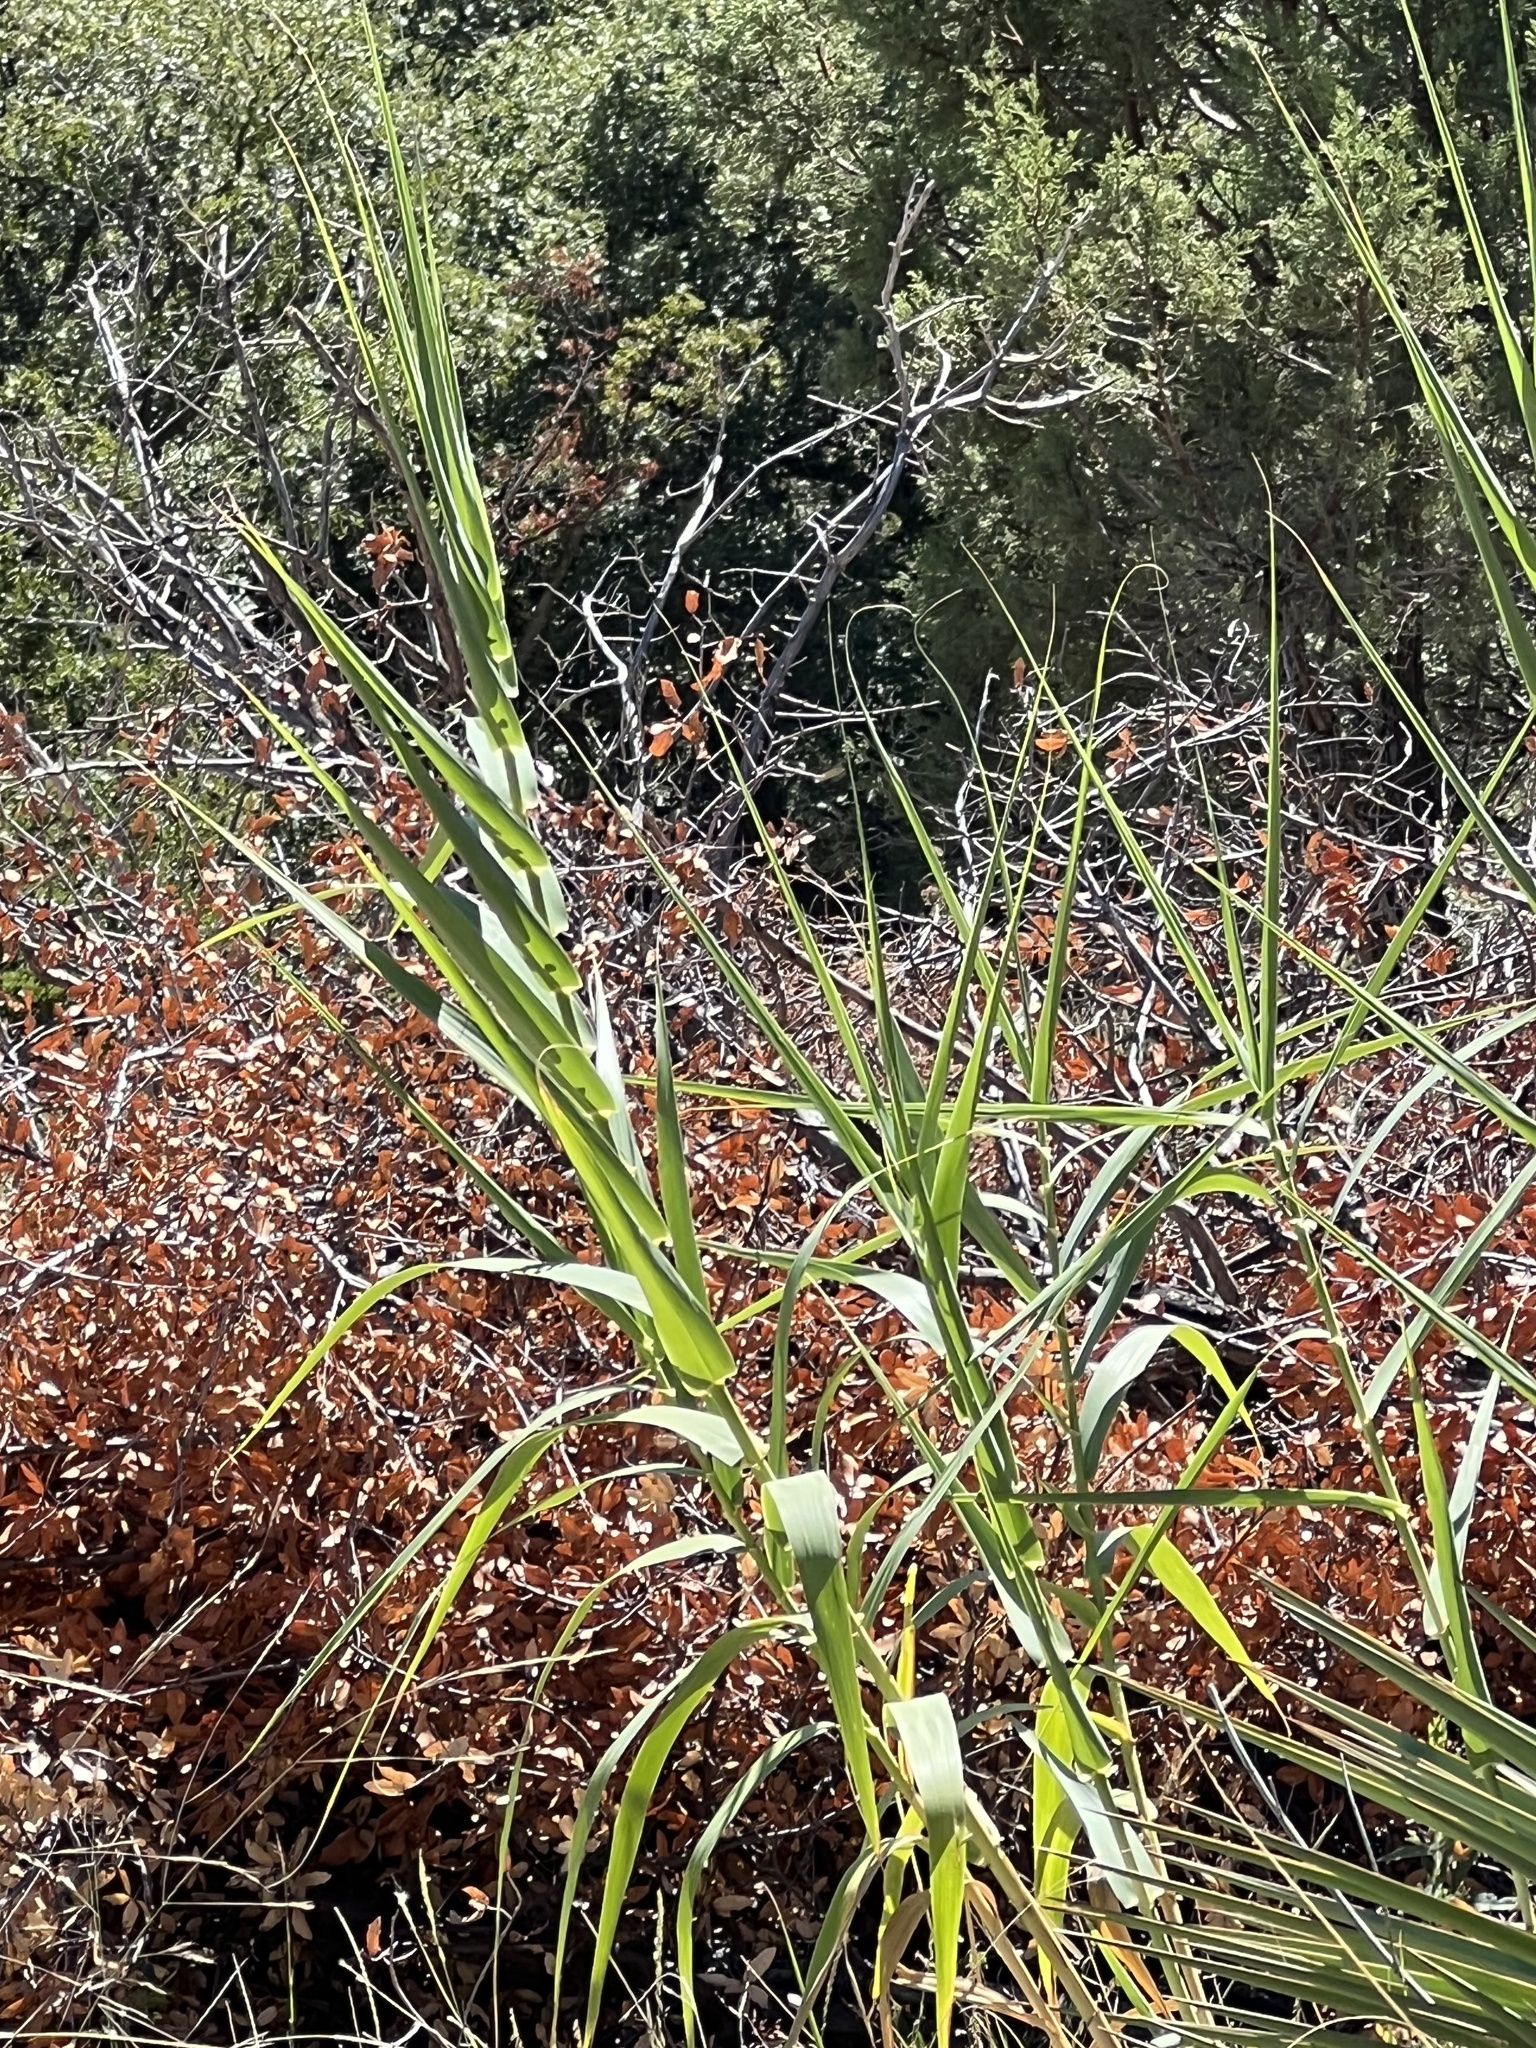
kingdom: Plantae
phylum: Tracheophyta
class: Liliopsida
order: Poales
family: Poaceae
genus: Arundo
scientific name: Arundo donax
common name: Giant reed
